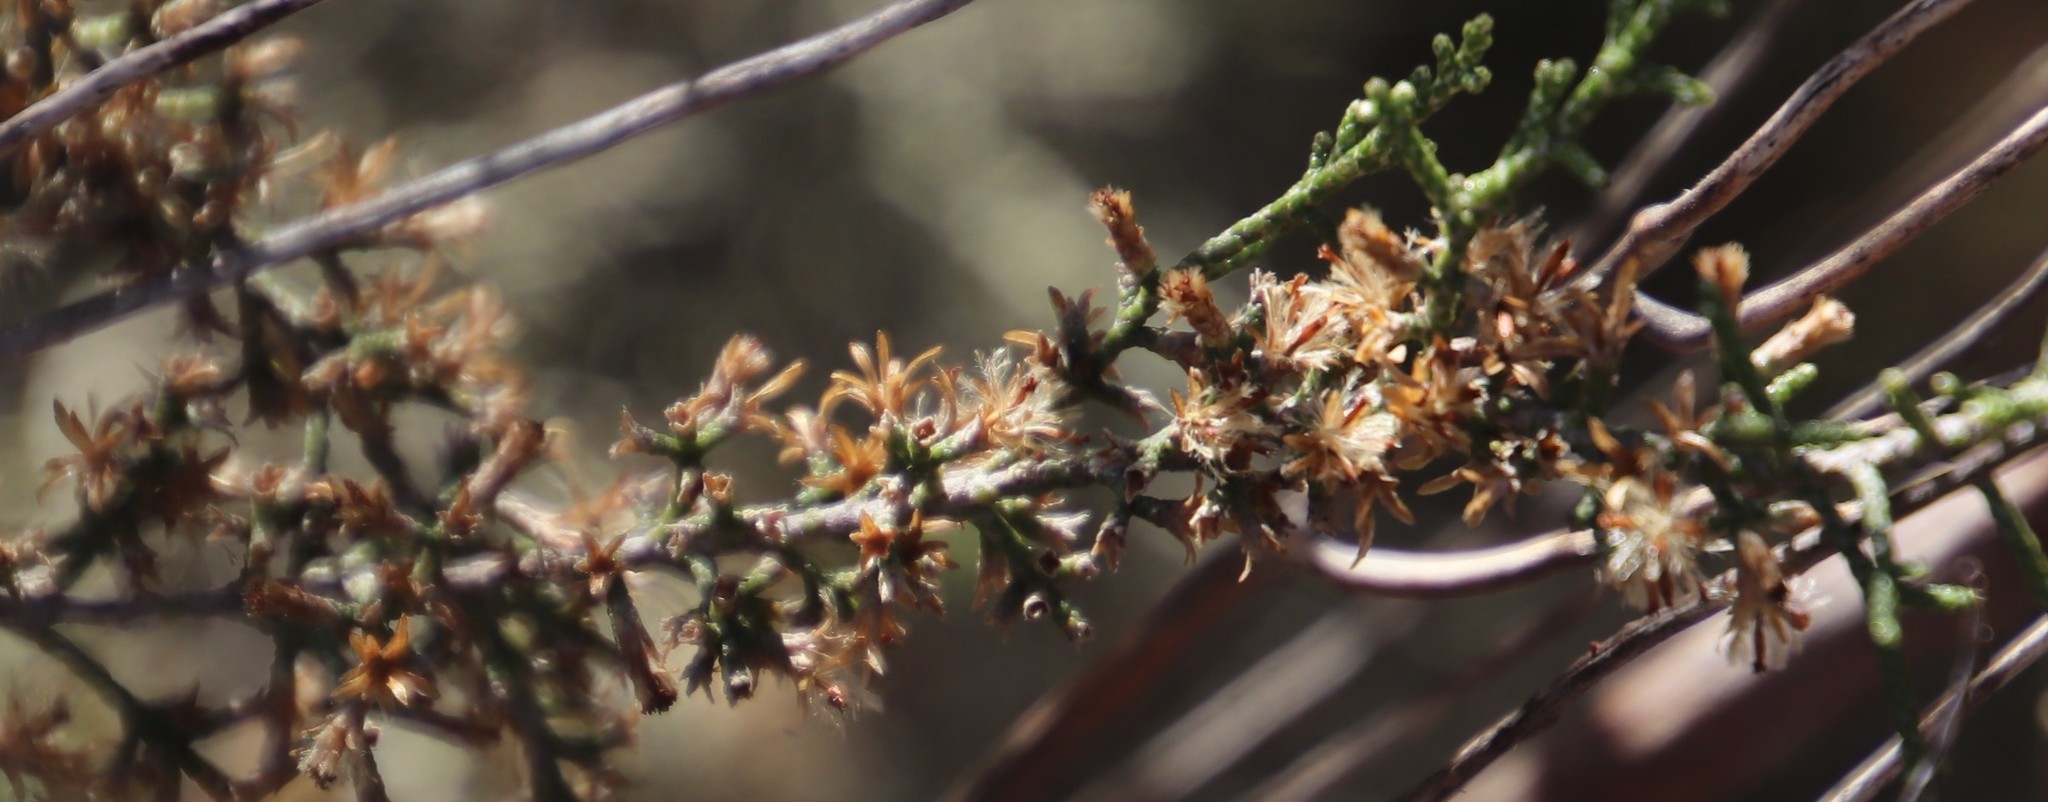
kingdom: Plantae
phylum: Tracheophyta
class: Magnoliopsida
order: Asterales
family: Asteraceae
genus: Dicerothamnus
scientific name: Dicerothamnus rhinocerotis
